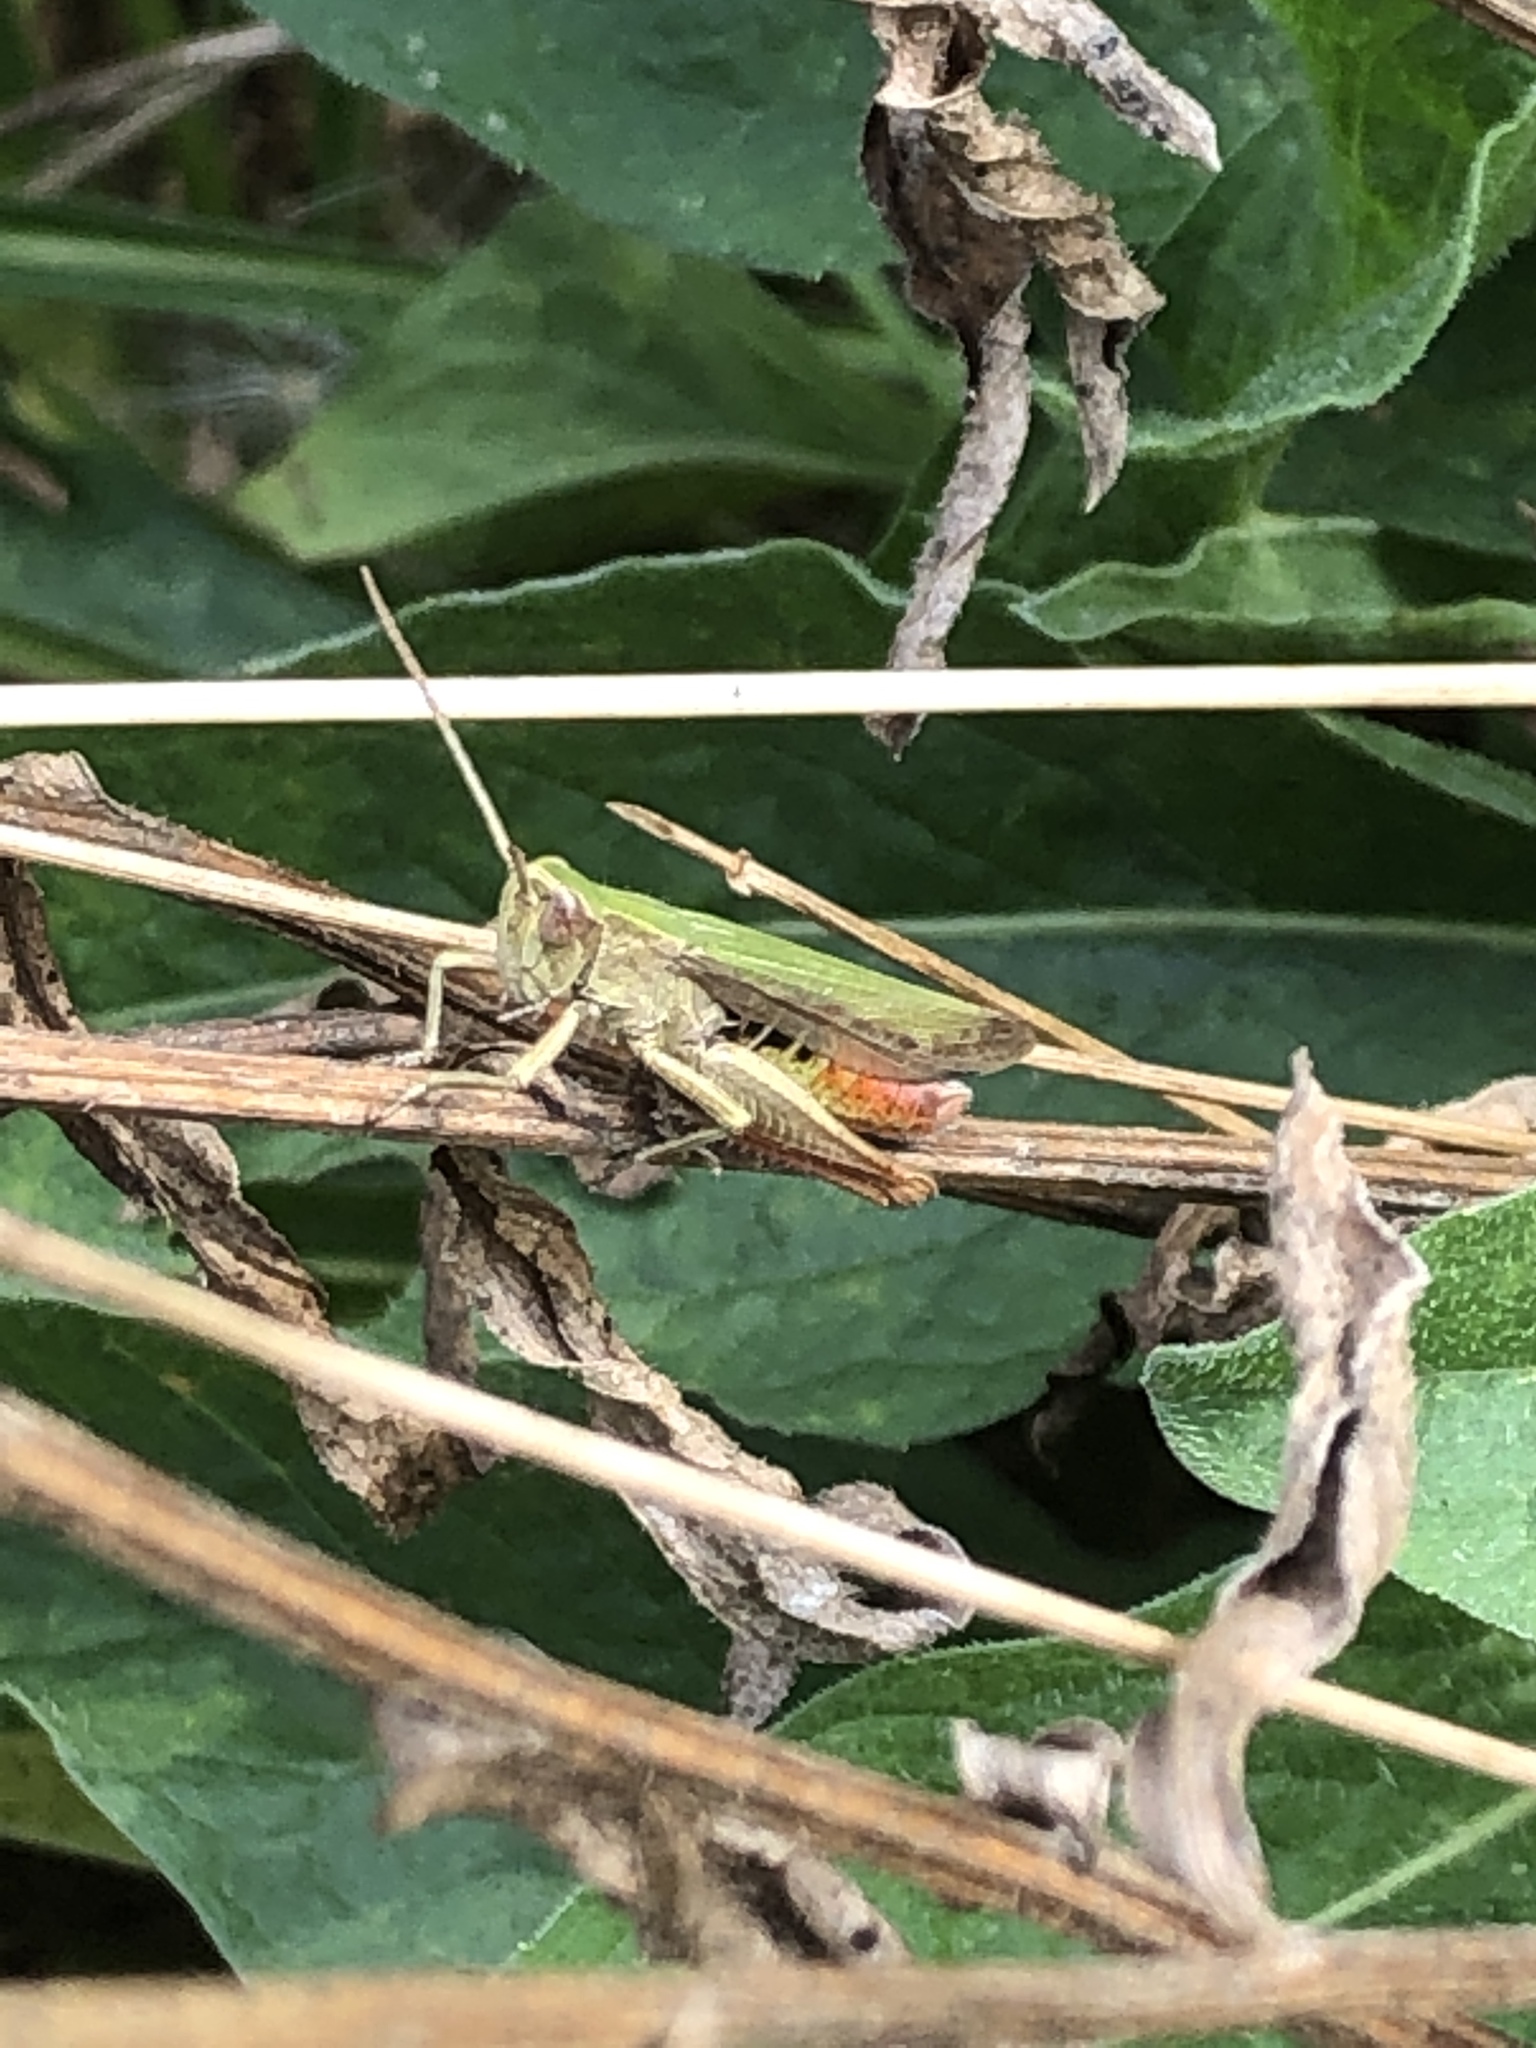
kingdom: Animalia
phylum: Arthropoda
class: Insecta
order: Orthoptera
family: Acrididae
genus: Chorthippus
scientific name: Chorthippus dorsatus
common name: Steppe grasshopper
